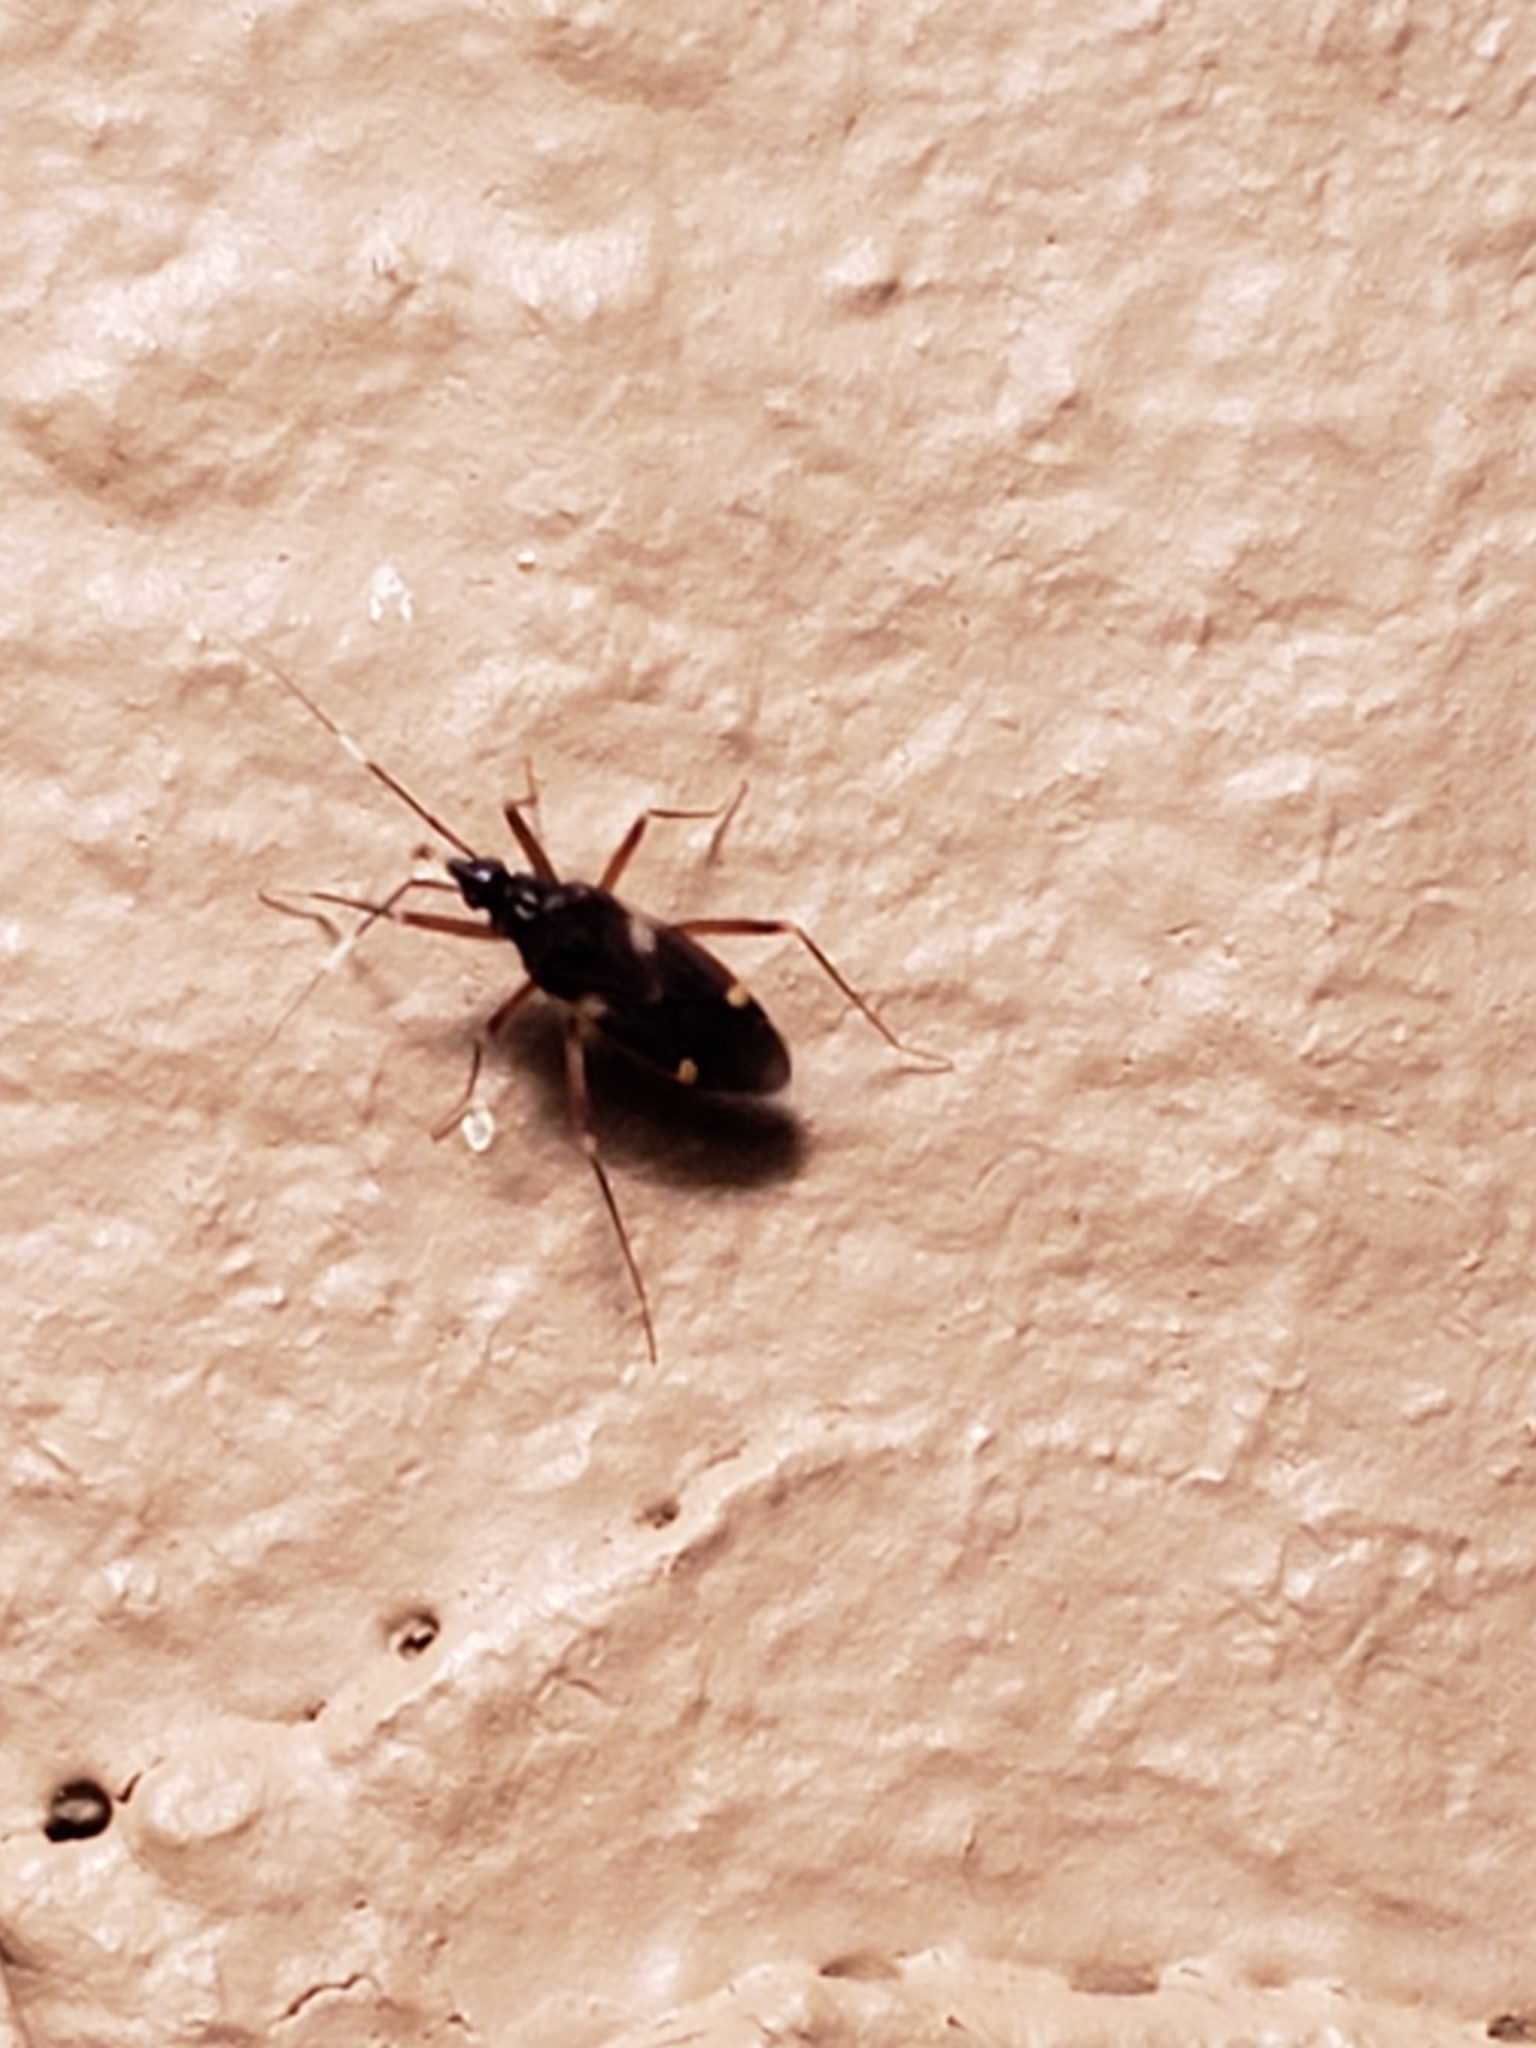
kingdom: Animalia
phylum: Arthropoda
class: Insecta
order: Hemiptera
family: Miridae
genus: Fulvius
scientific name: Fulvius imbecilis
